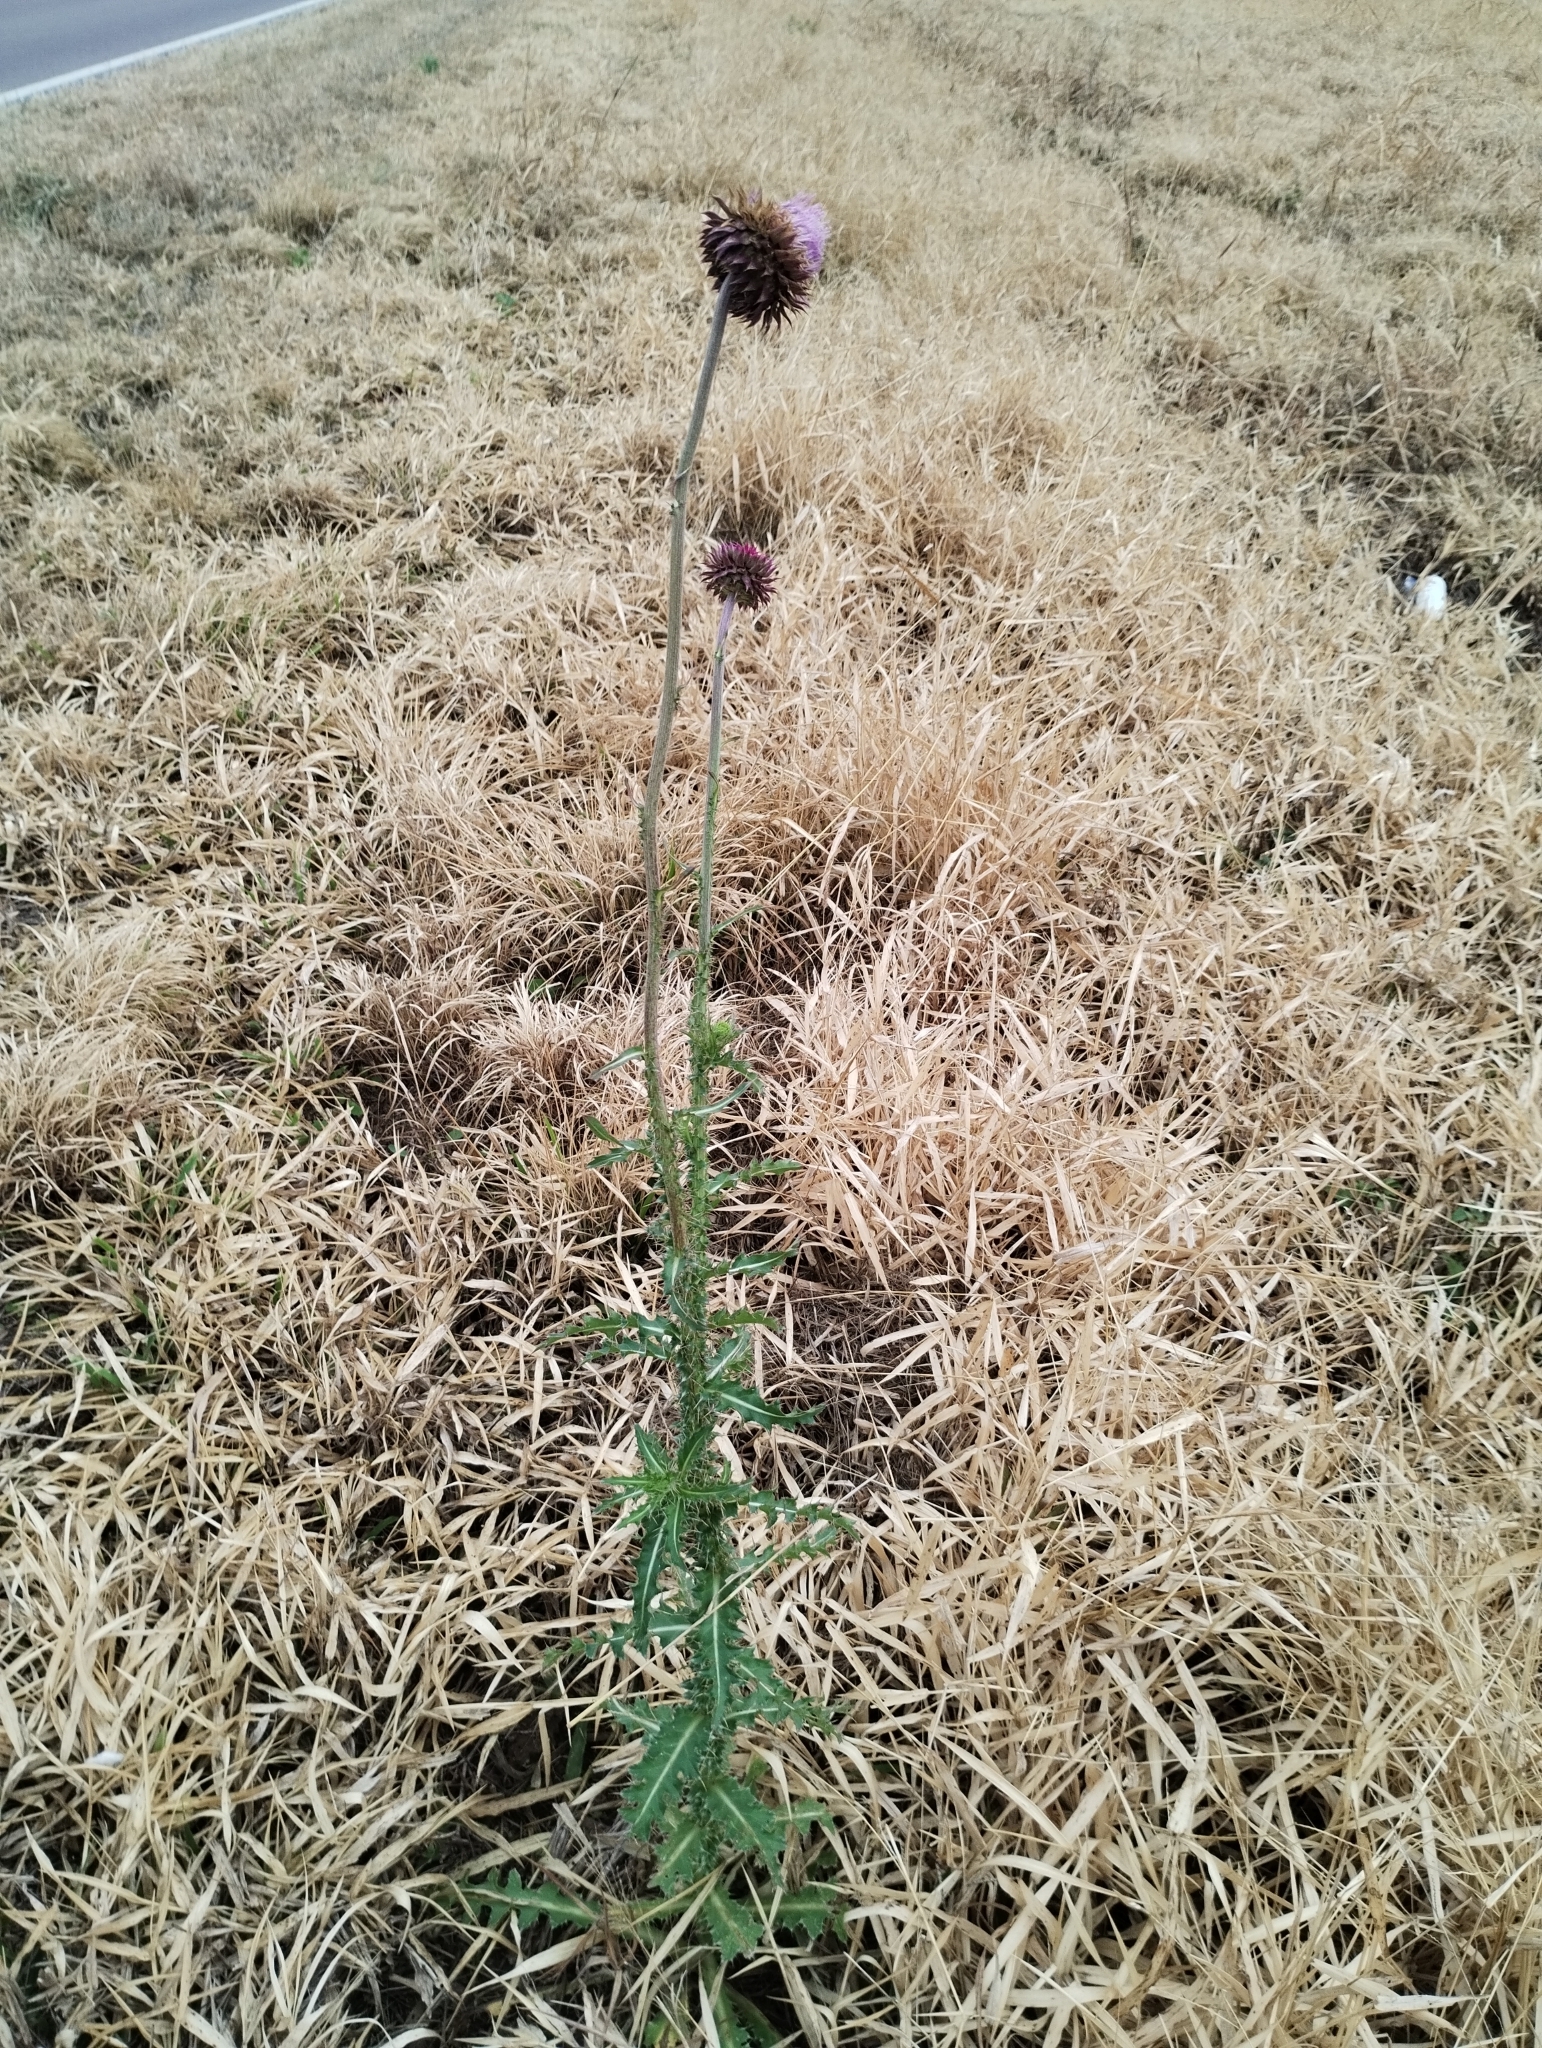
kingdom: Plantae
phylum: Tracheophyta
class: Magnoliopsida
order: Asterales
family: Asteraceae
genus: Cirsium
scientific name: Cirsium vulgare
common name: Bull thistle
